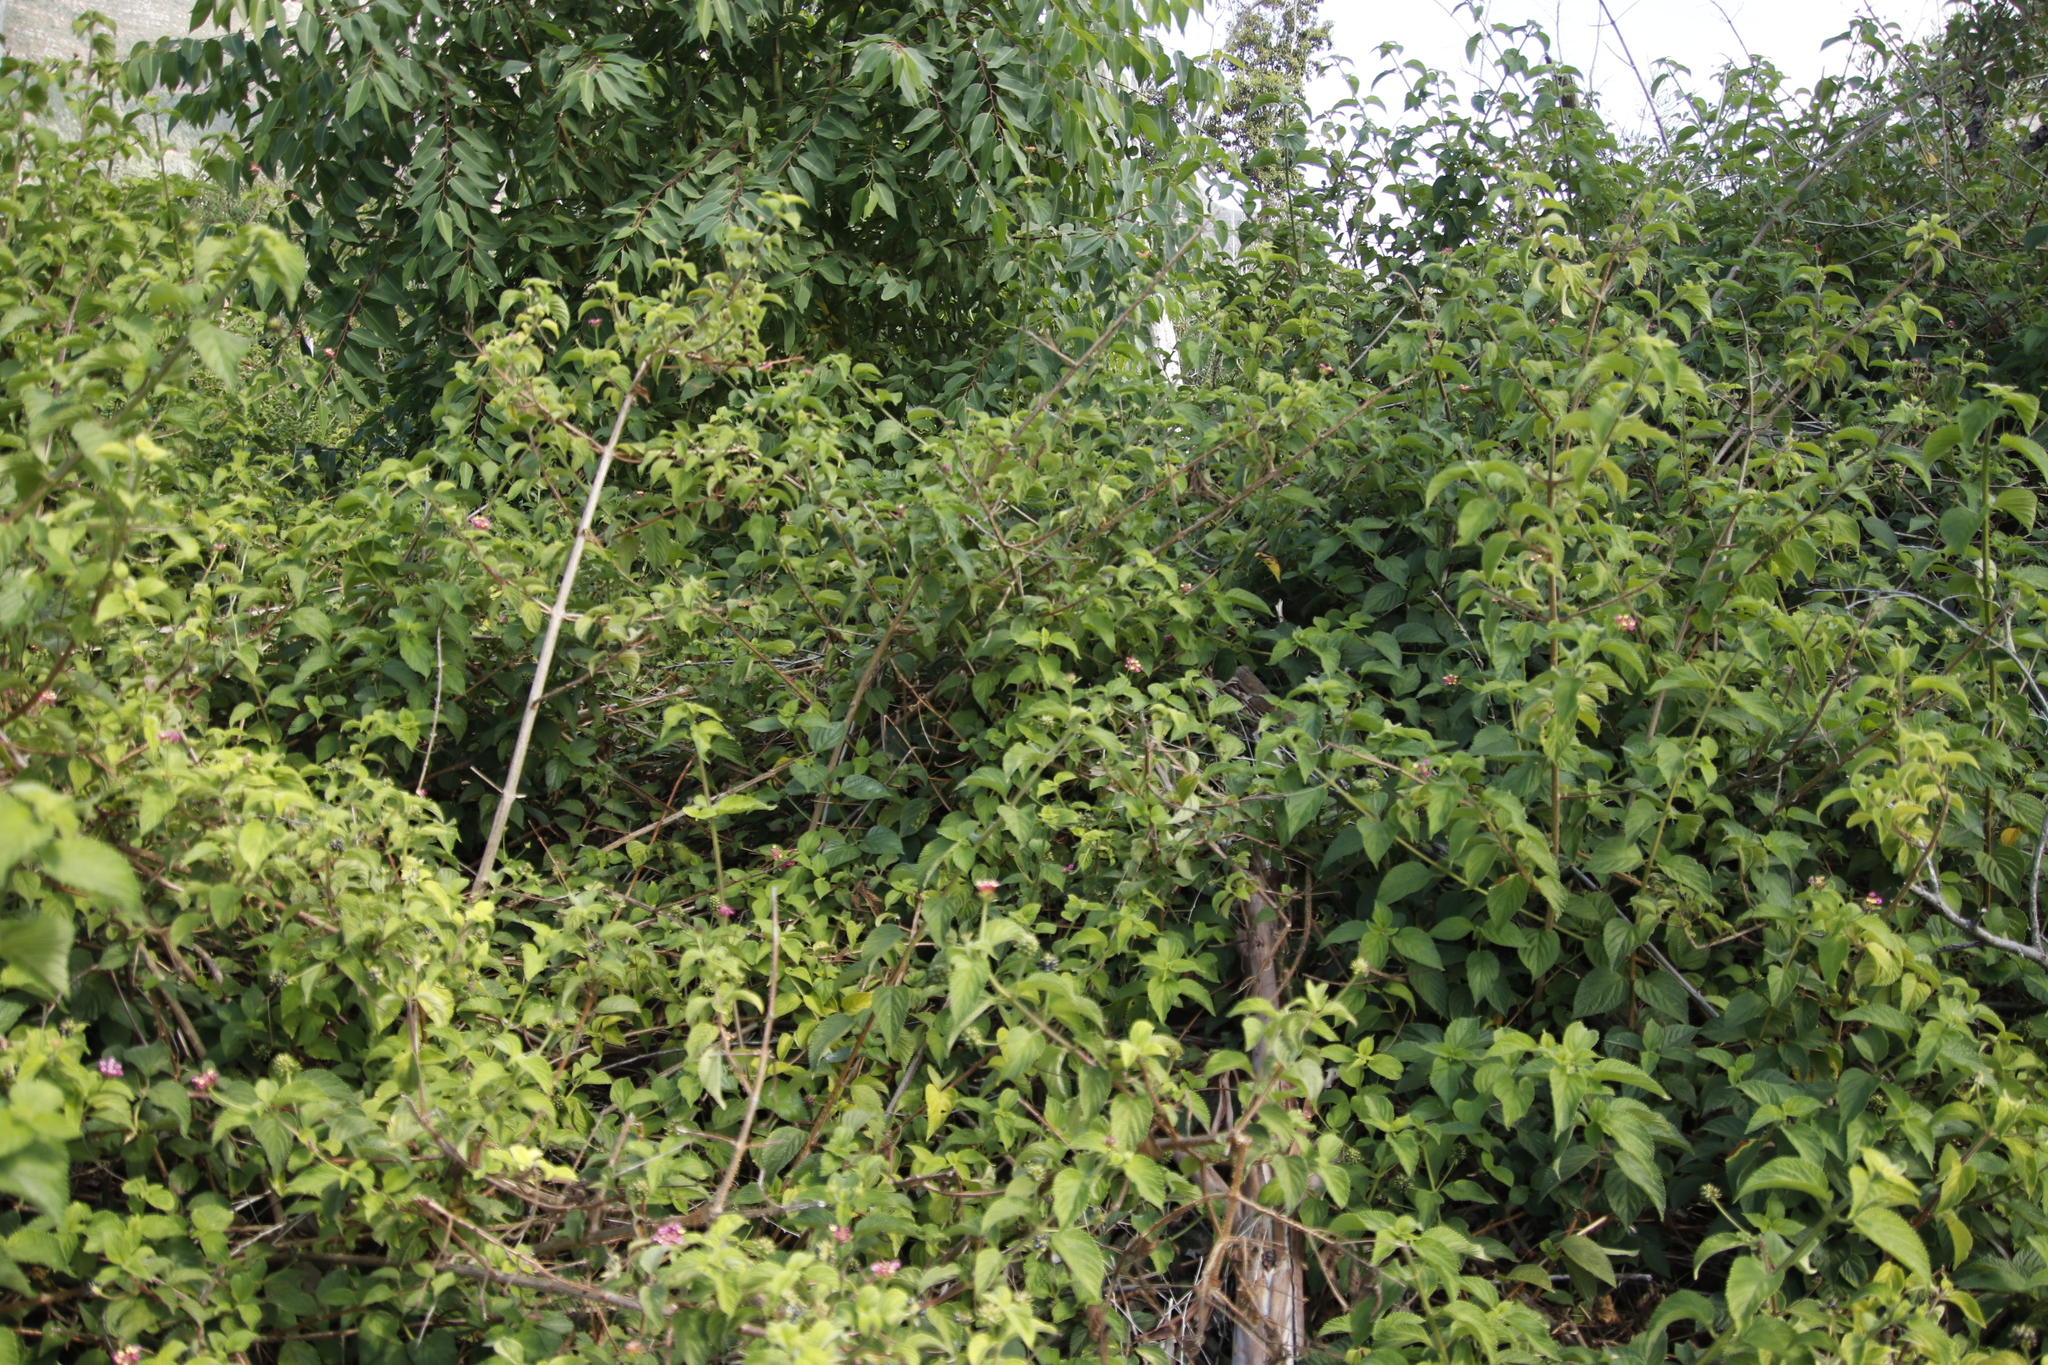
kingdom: Plantae
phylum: Tracheophyta
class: Magnoliopsida
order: Lamiales
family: Verbenaceae
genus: Lantana
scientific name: Lantana camara
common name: Lantana
